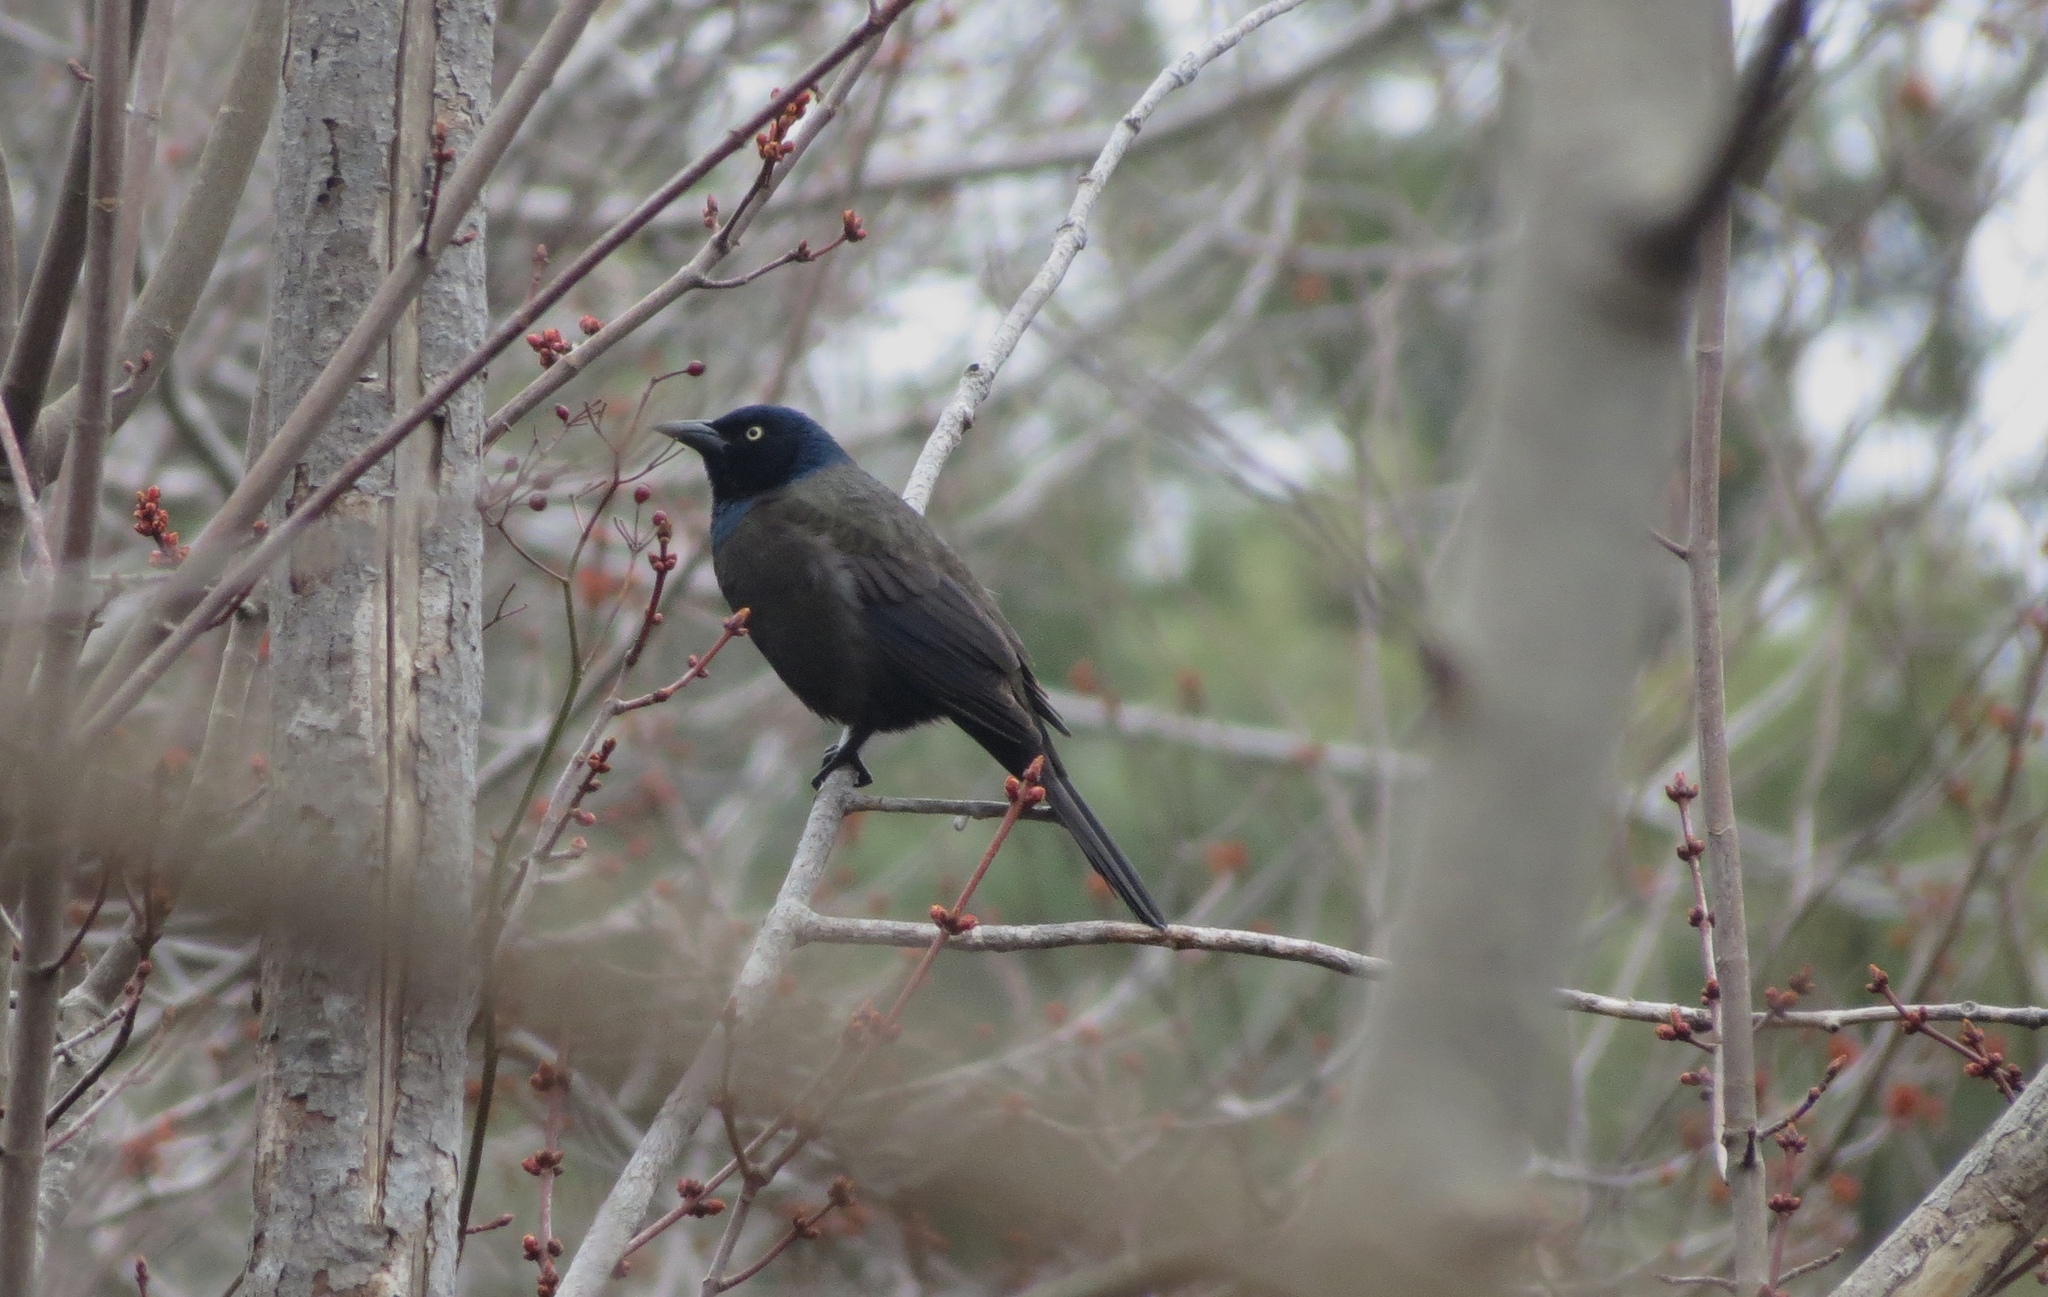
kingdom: Animalia
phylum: Chordata
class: Aves
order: Passeriformes
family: Icteridae
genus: Quiscalus
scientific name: Quiscalus quiscula
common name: Common grackle
